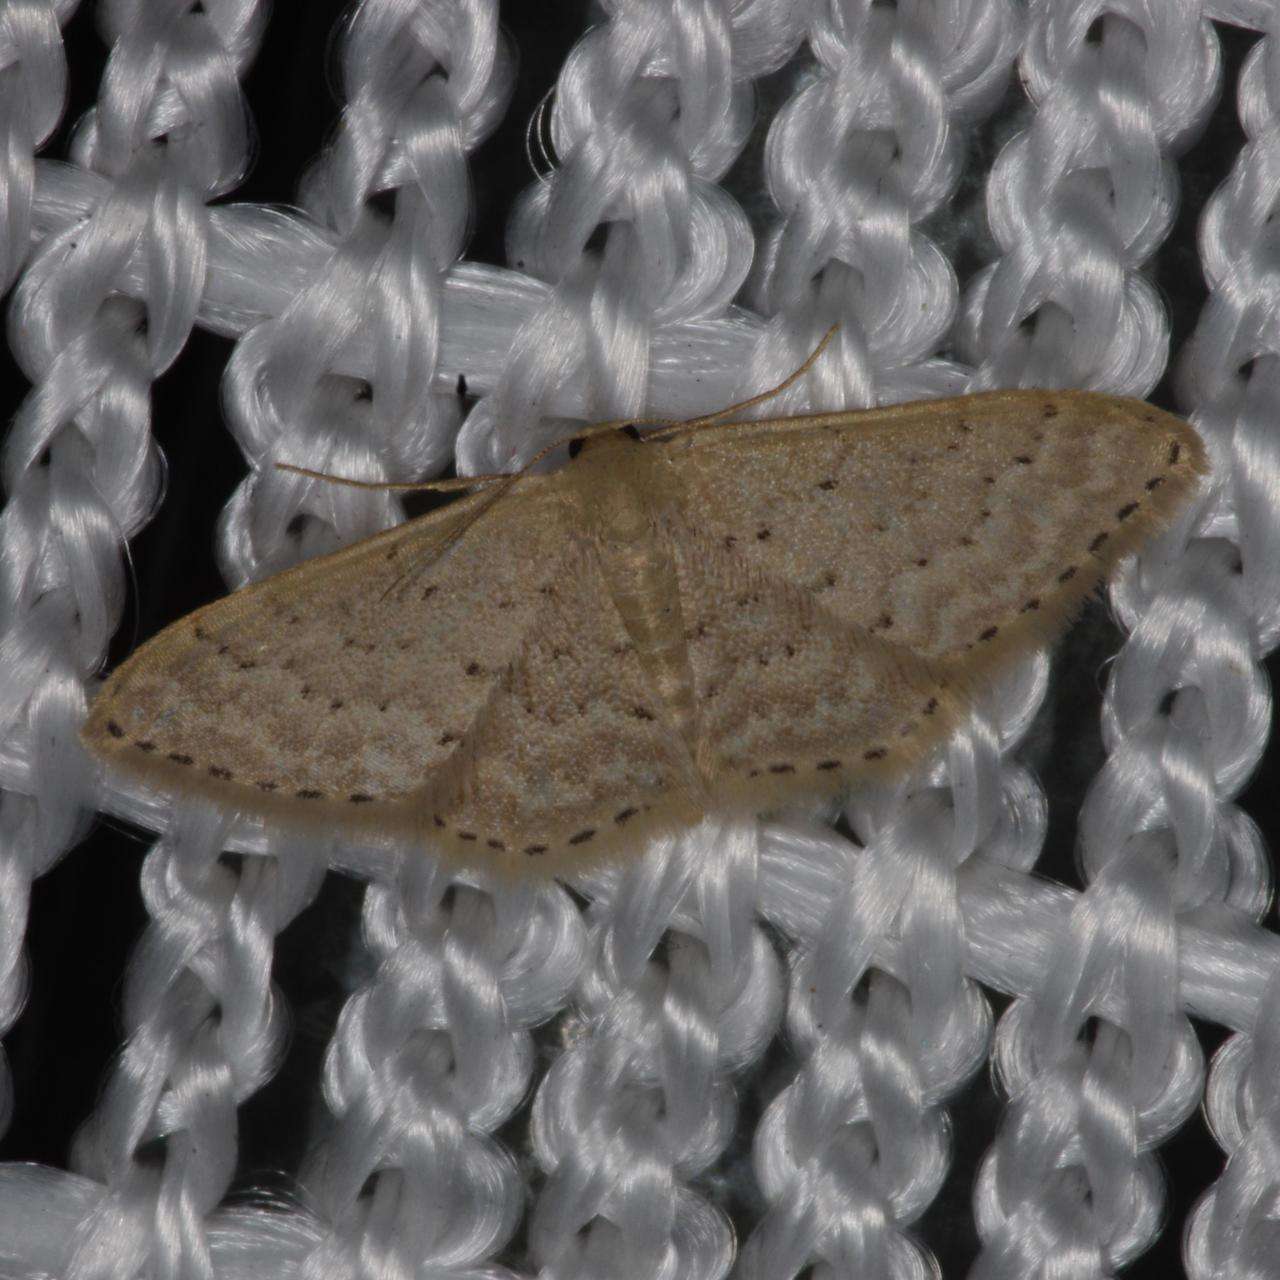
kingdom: Animalia
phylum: Arthropoda
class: Insecta
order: Lepidoptera
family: Geometridae
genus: Idaea
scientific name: Idaea philocosma
